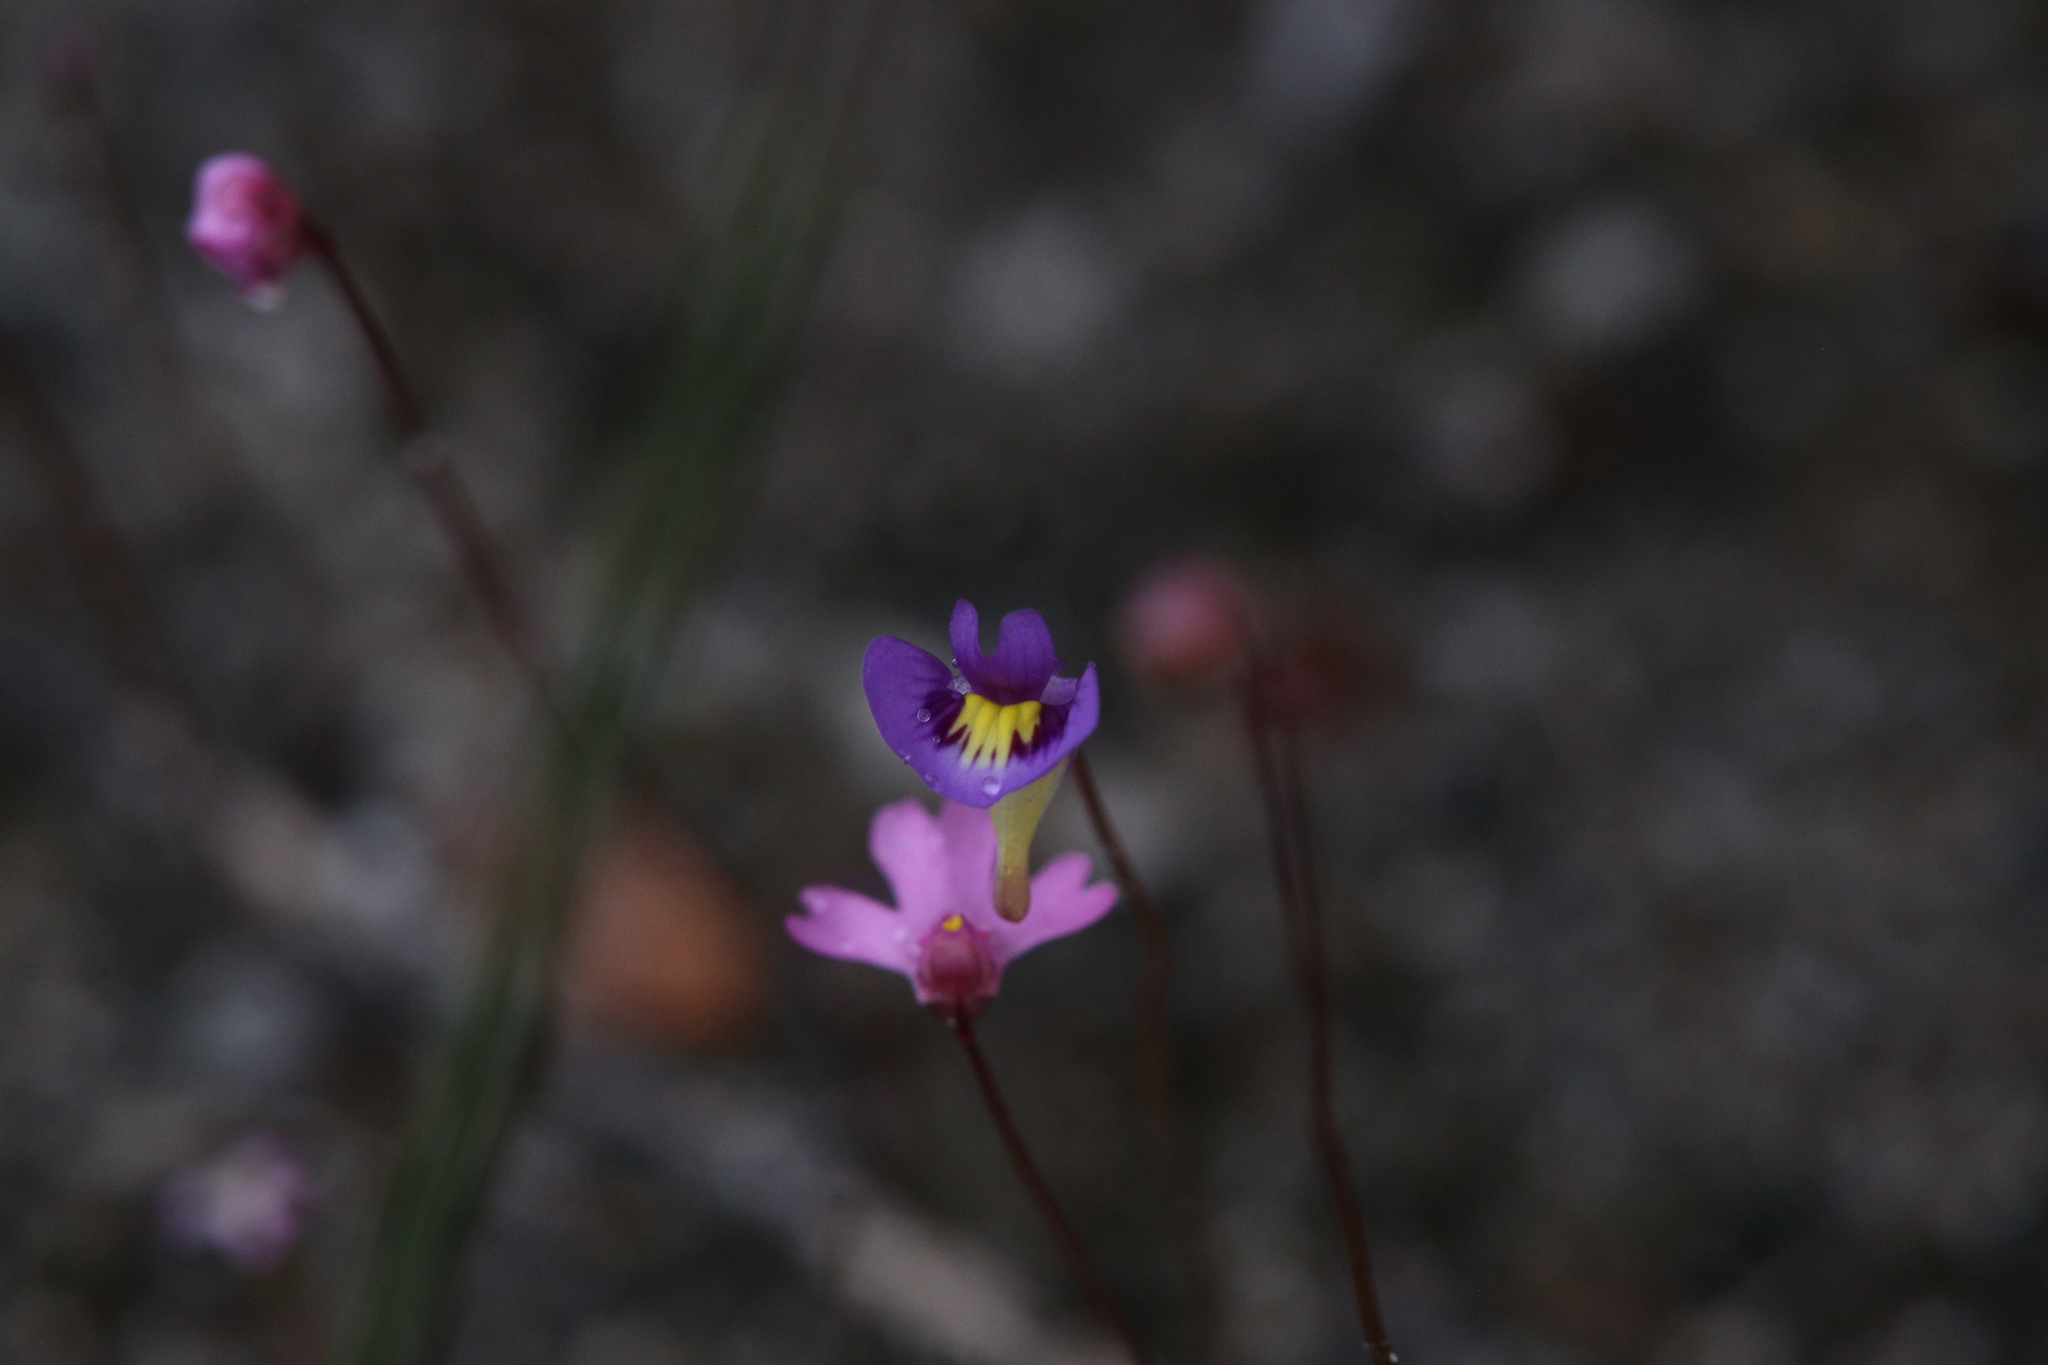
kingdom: Plantae
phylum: Tracheophyta
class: Magnoliopsida
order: Lamiales
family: Lentibulariaceae
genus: Utricularia
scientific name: Utricularia petertaylorii
